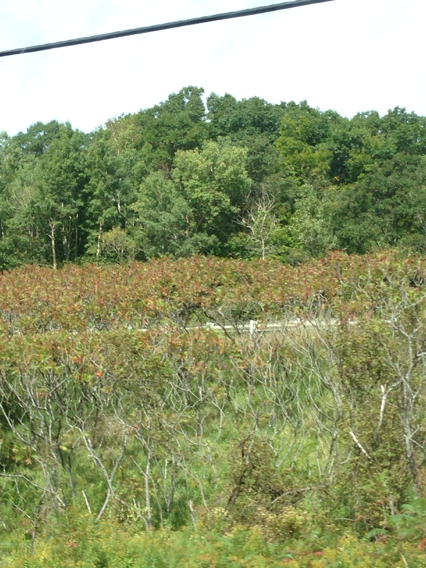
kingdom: Plantae
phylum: Tracheophyta
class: Magnoliopsida
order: Sapindales
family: Anacardiaceae
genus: Rhus
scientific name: Rhus typhina
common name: Staghorn sumac
